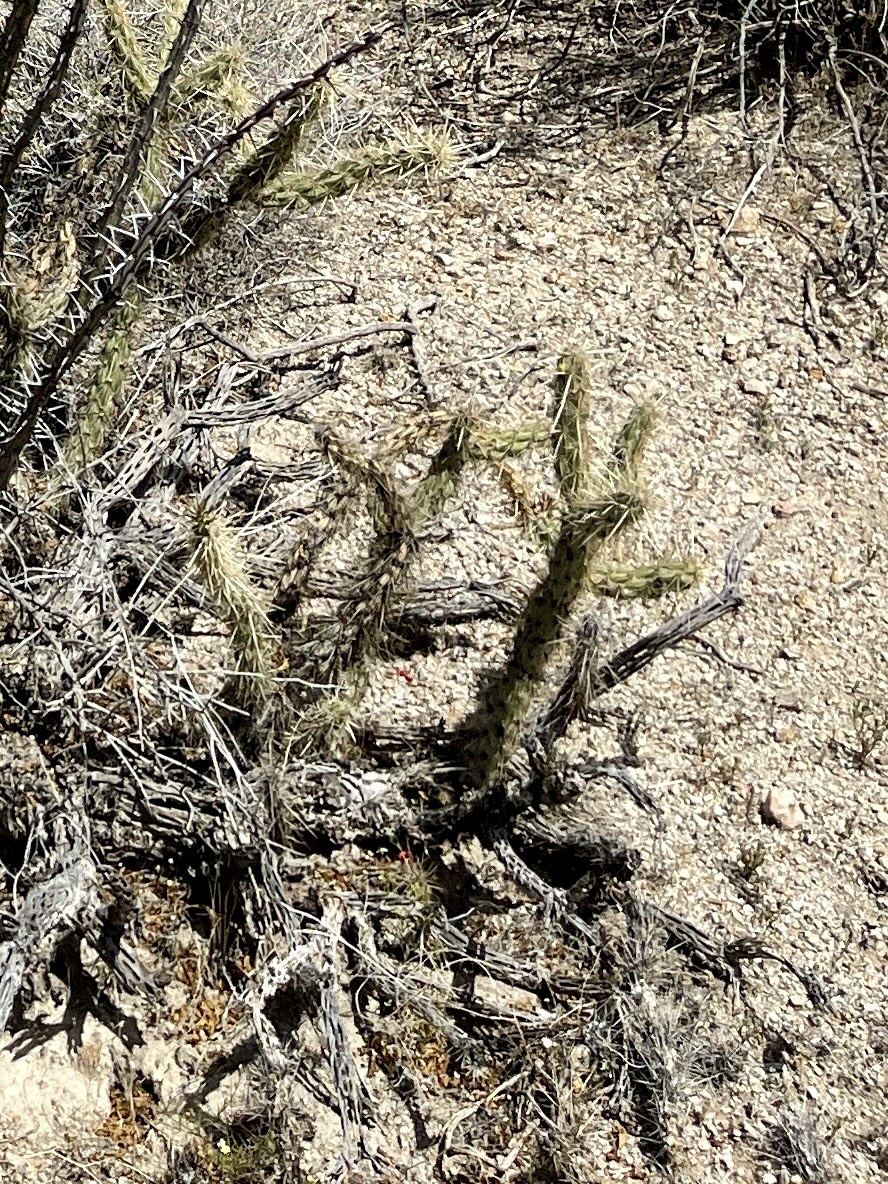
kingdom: Plantae
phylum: Tracheophyta
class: Magnoliopsida
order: Caryophyllales
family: Cactaceae
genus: Cylindropuntia
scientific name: Cylindropuntia acanthocarpa
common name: Buckhorn cholla
